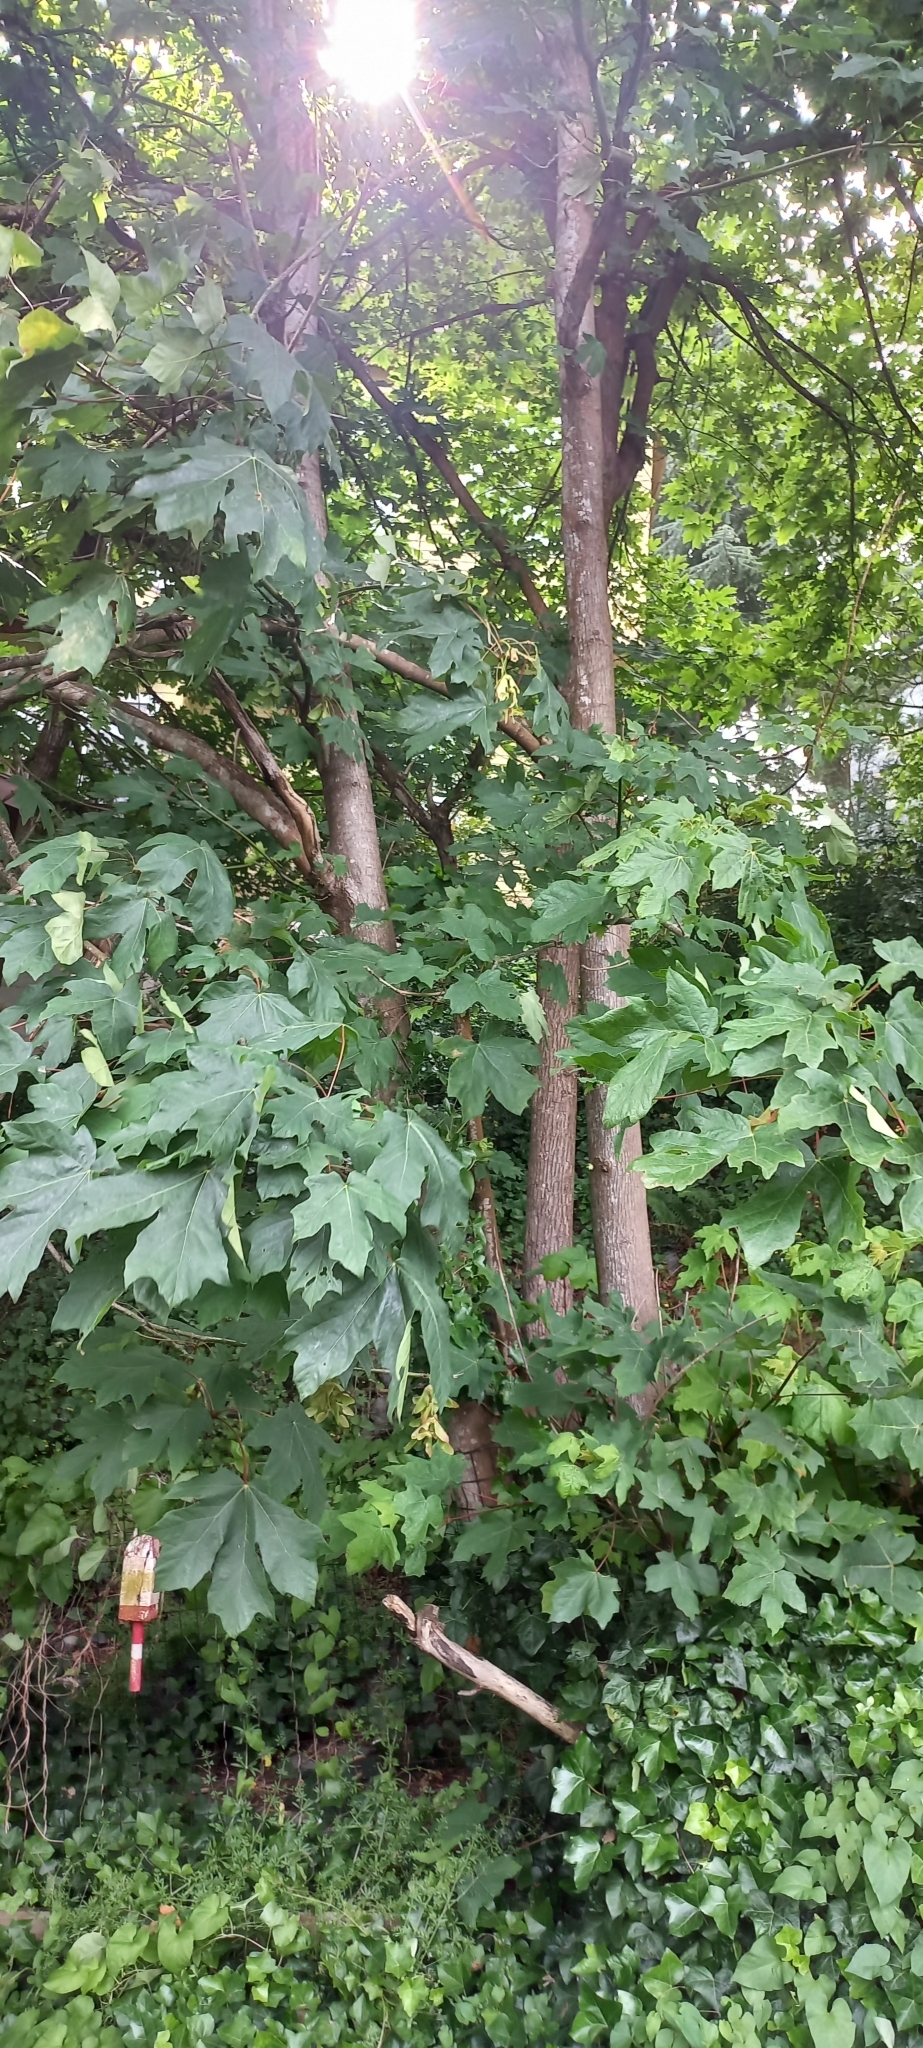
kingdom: Plantae
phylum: Tracheophyta
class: Magnoliopsida
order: Sapindales
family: Sapindaceae
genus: Acer
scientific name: Acer macrophyllum
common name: Oregon maple
